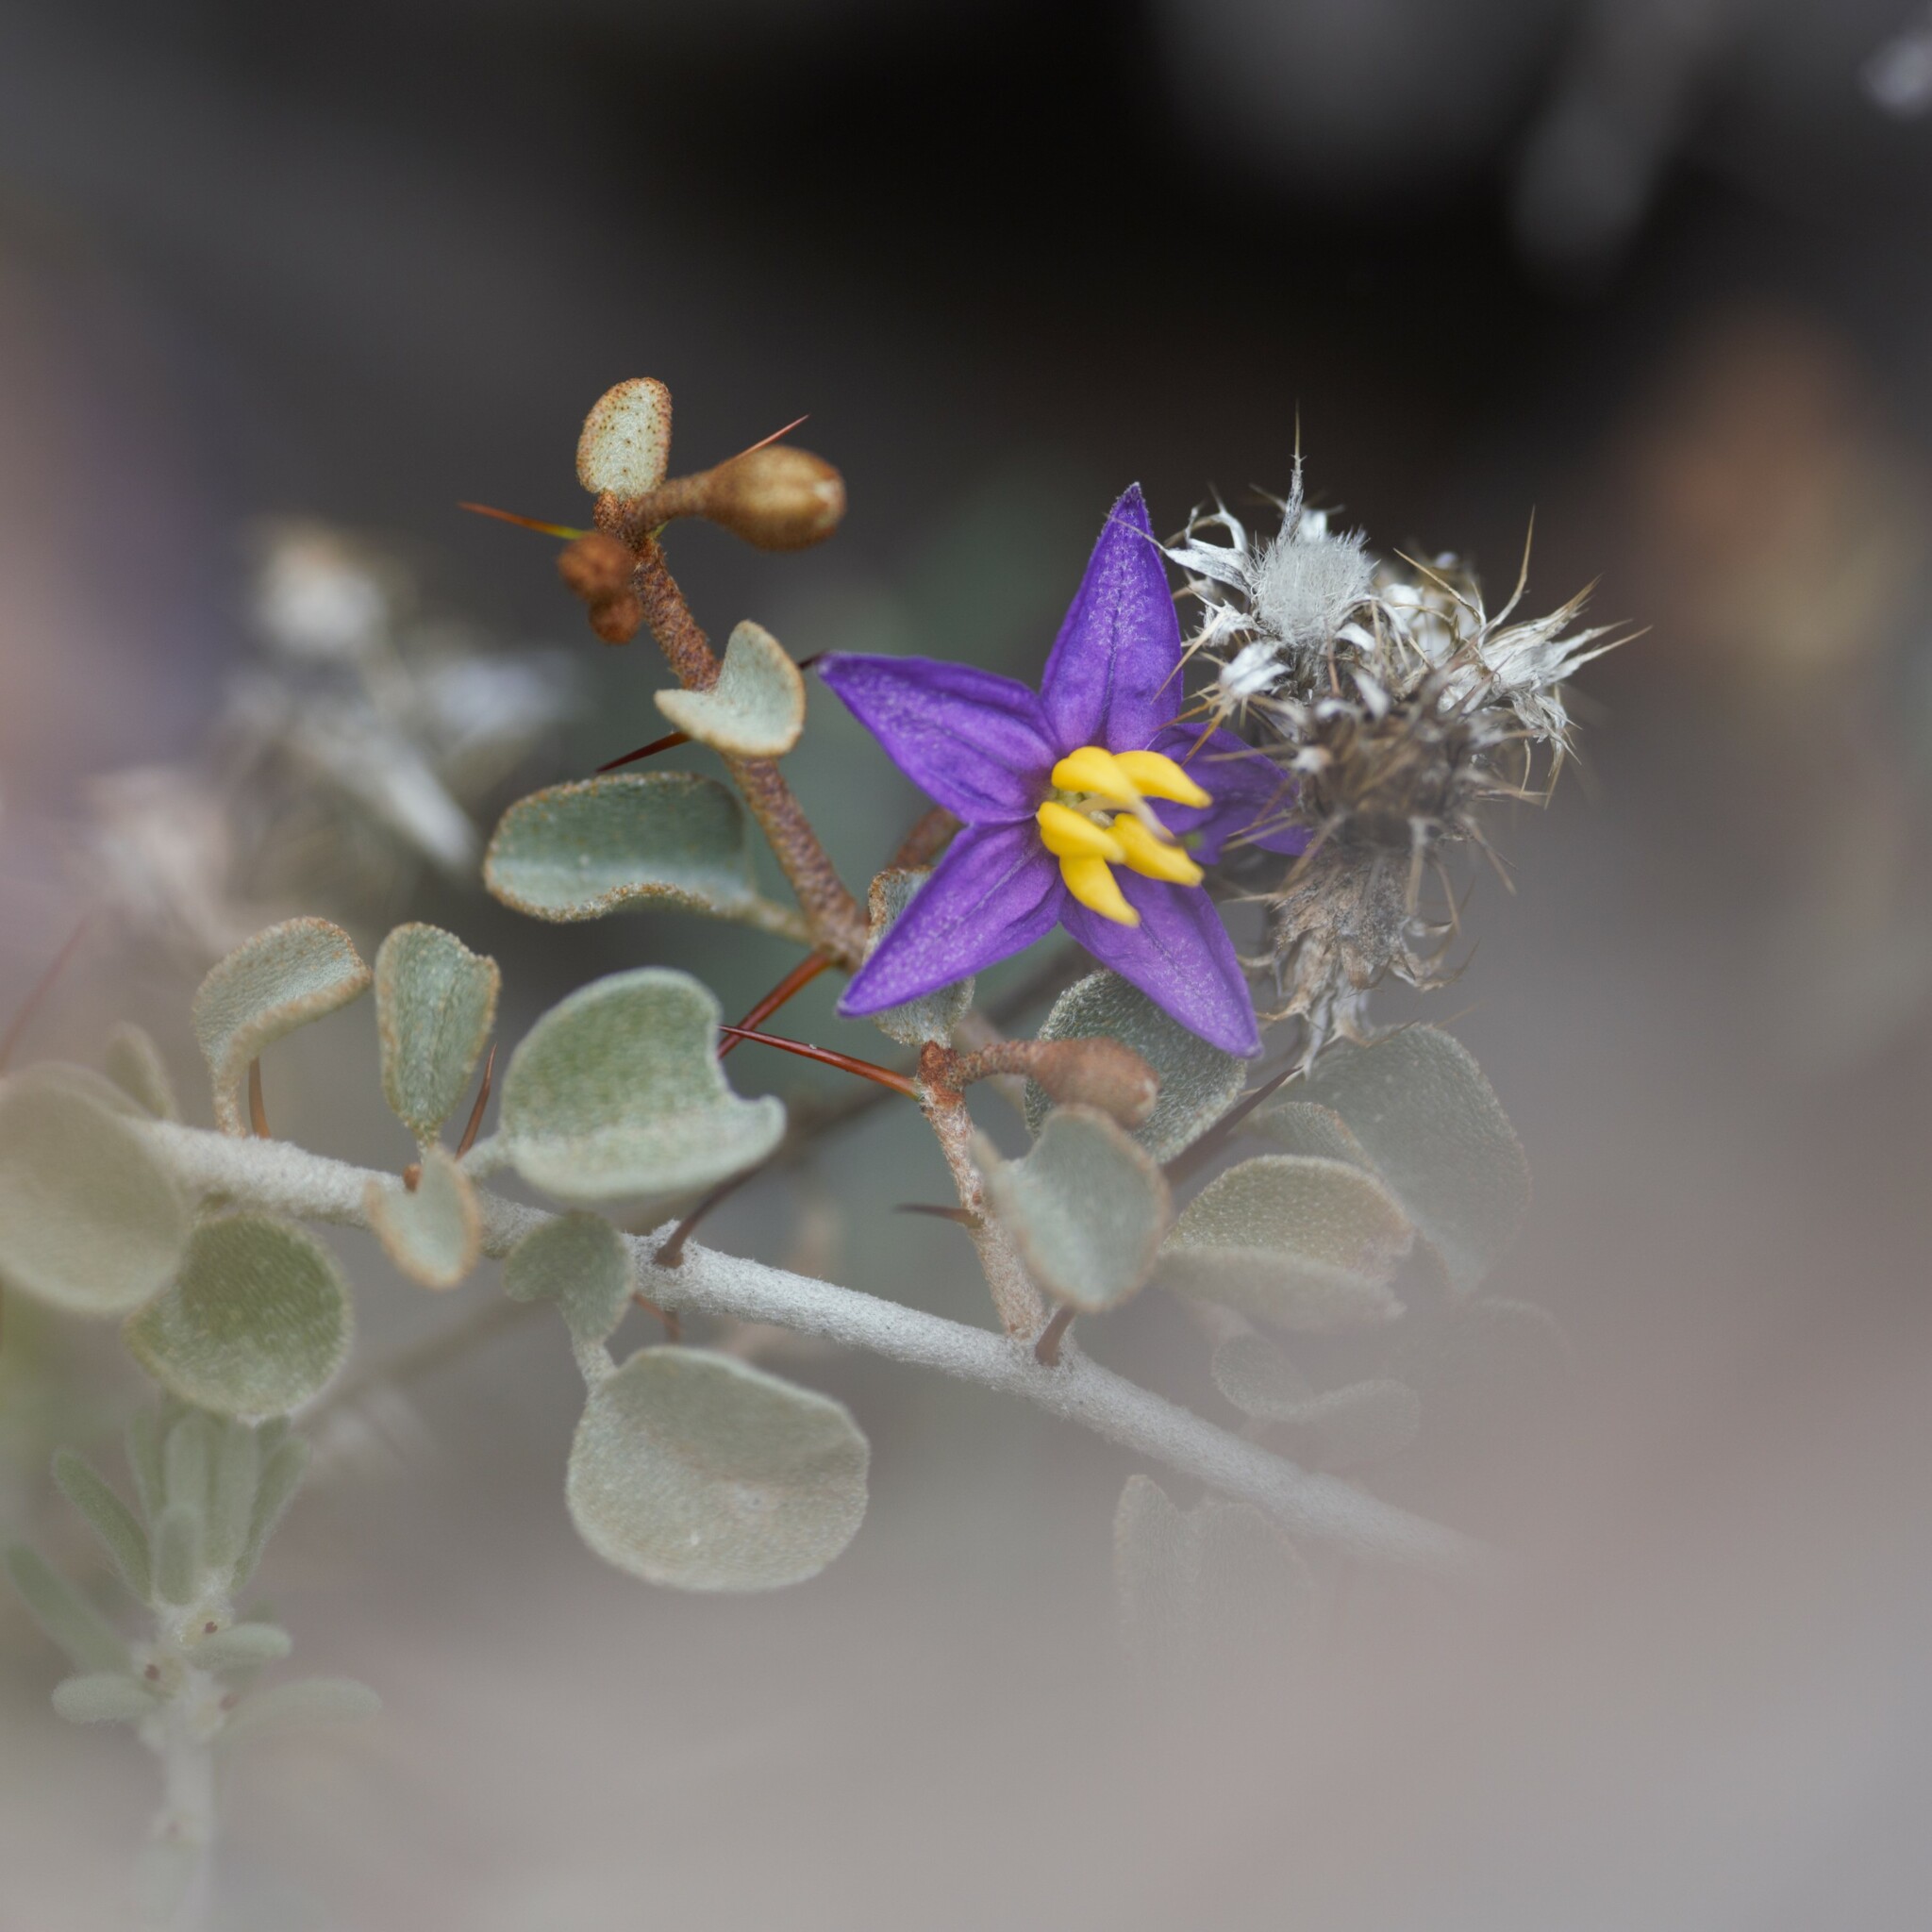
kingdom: Plantae
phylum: Tracheophyta
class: Magnoliopsida
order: Solanales
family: Solanaceae
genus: Solanum
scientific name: Solanum nummularium
